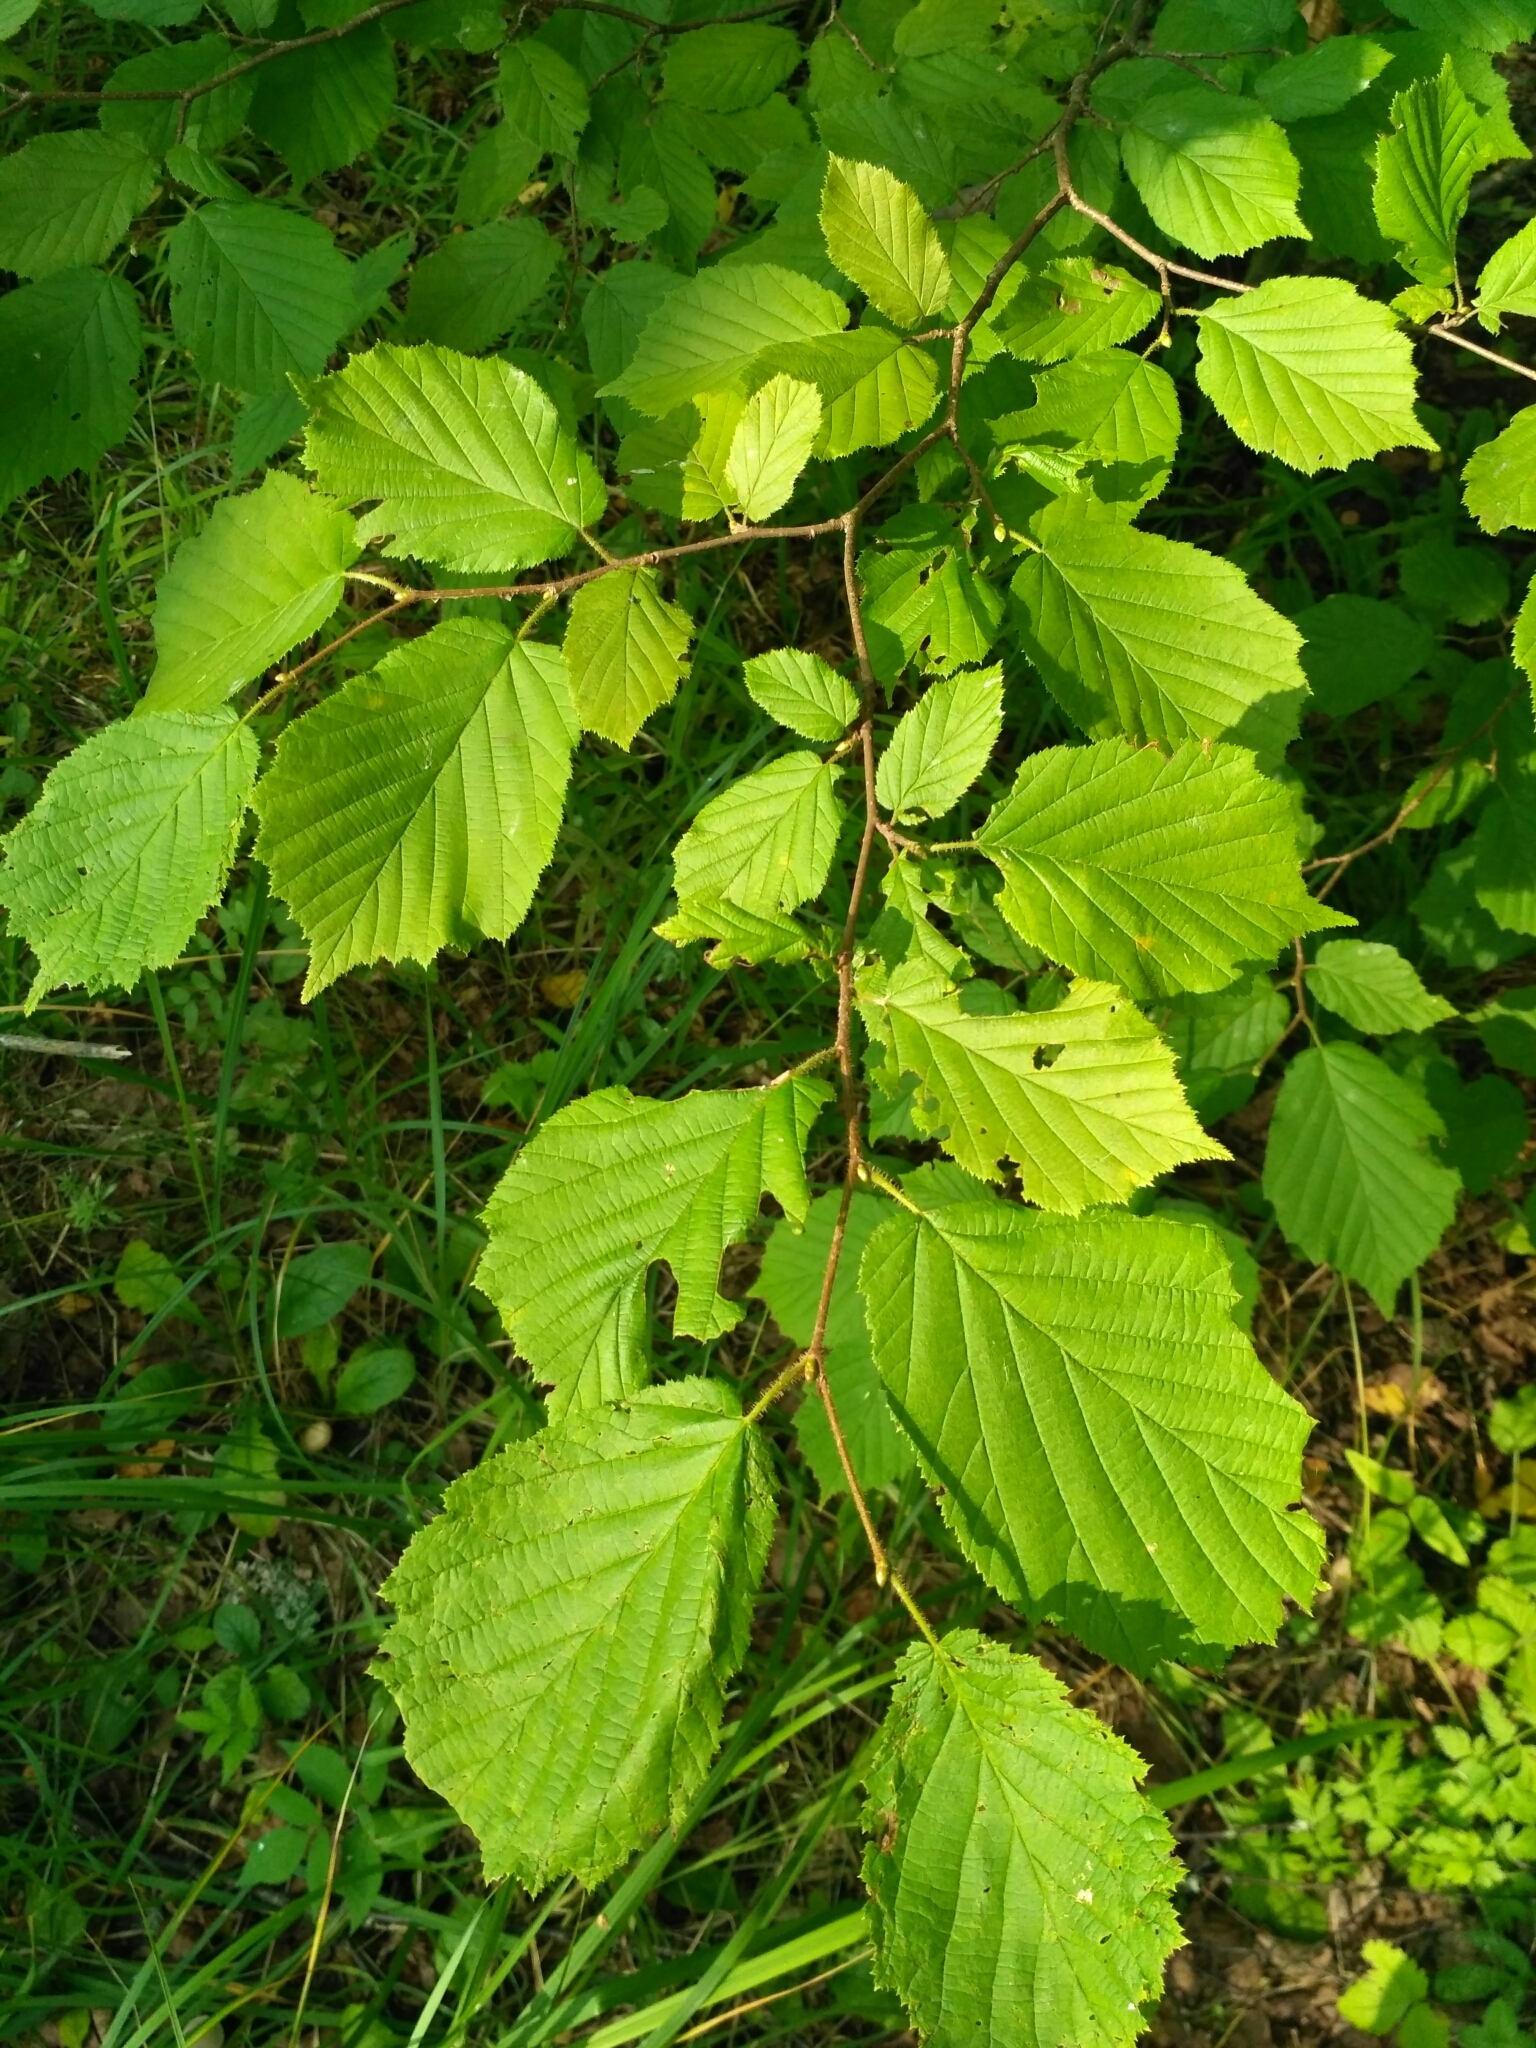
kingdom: Plantae
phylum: Tracheophyta
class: Magnoliopsida
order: Fagales
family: Betulaceae
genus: Corylus
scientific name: Corylus avellana
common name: European hazel
